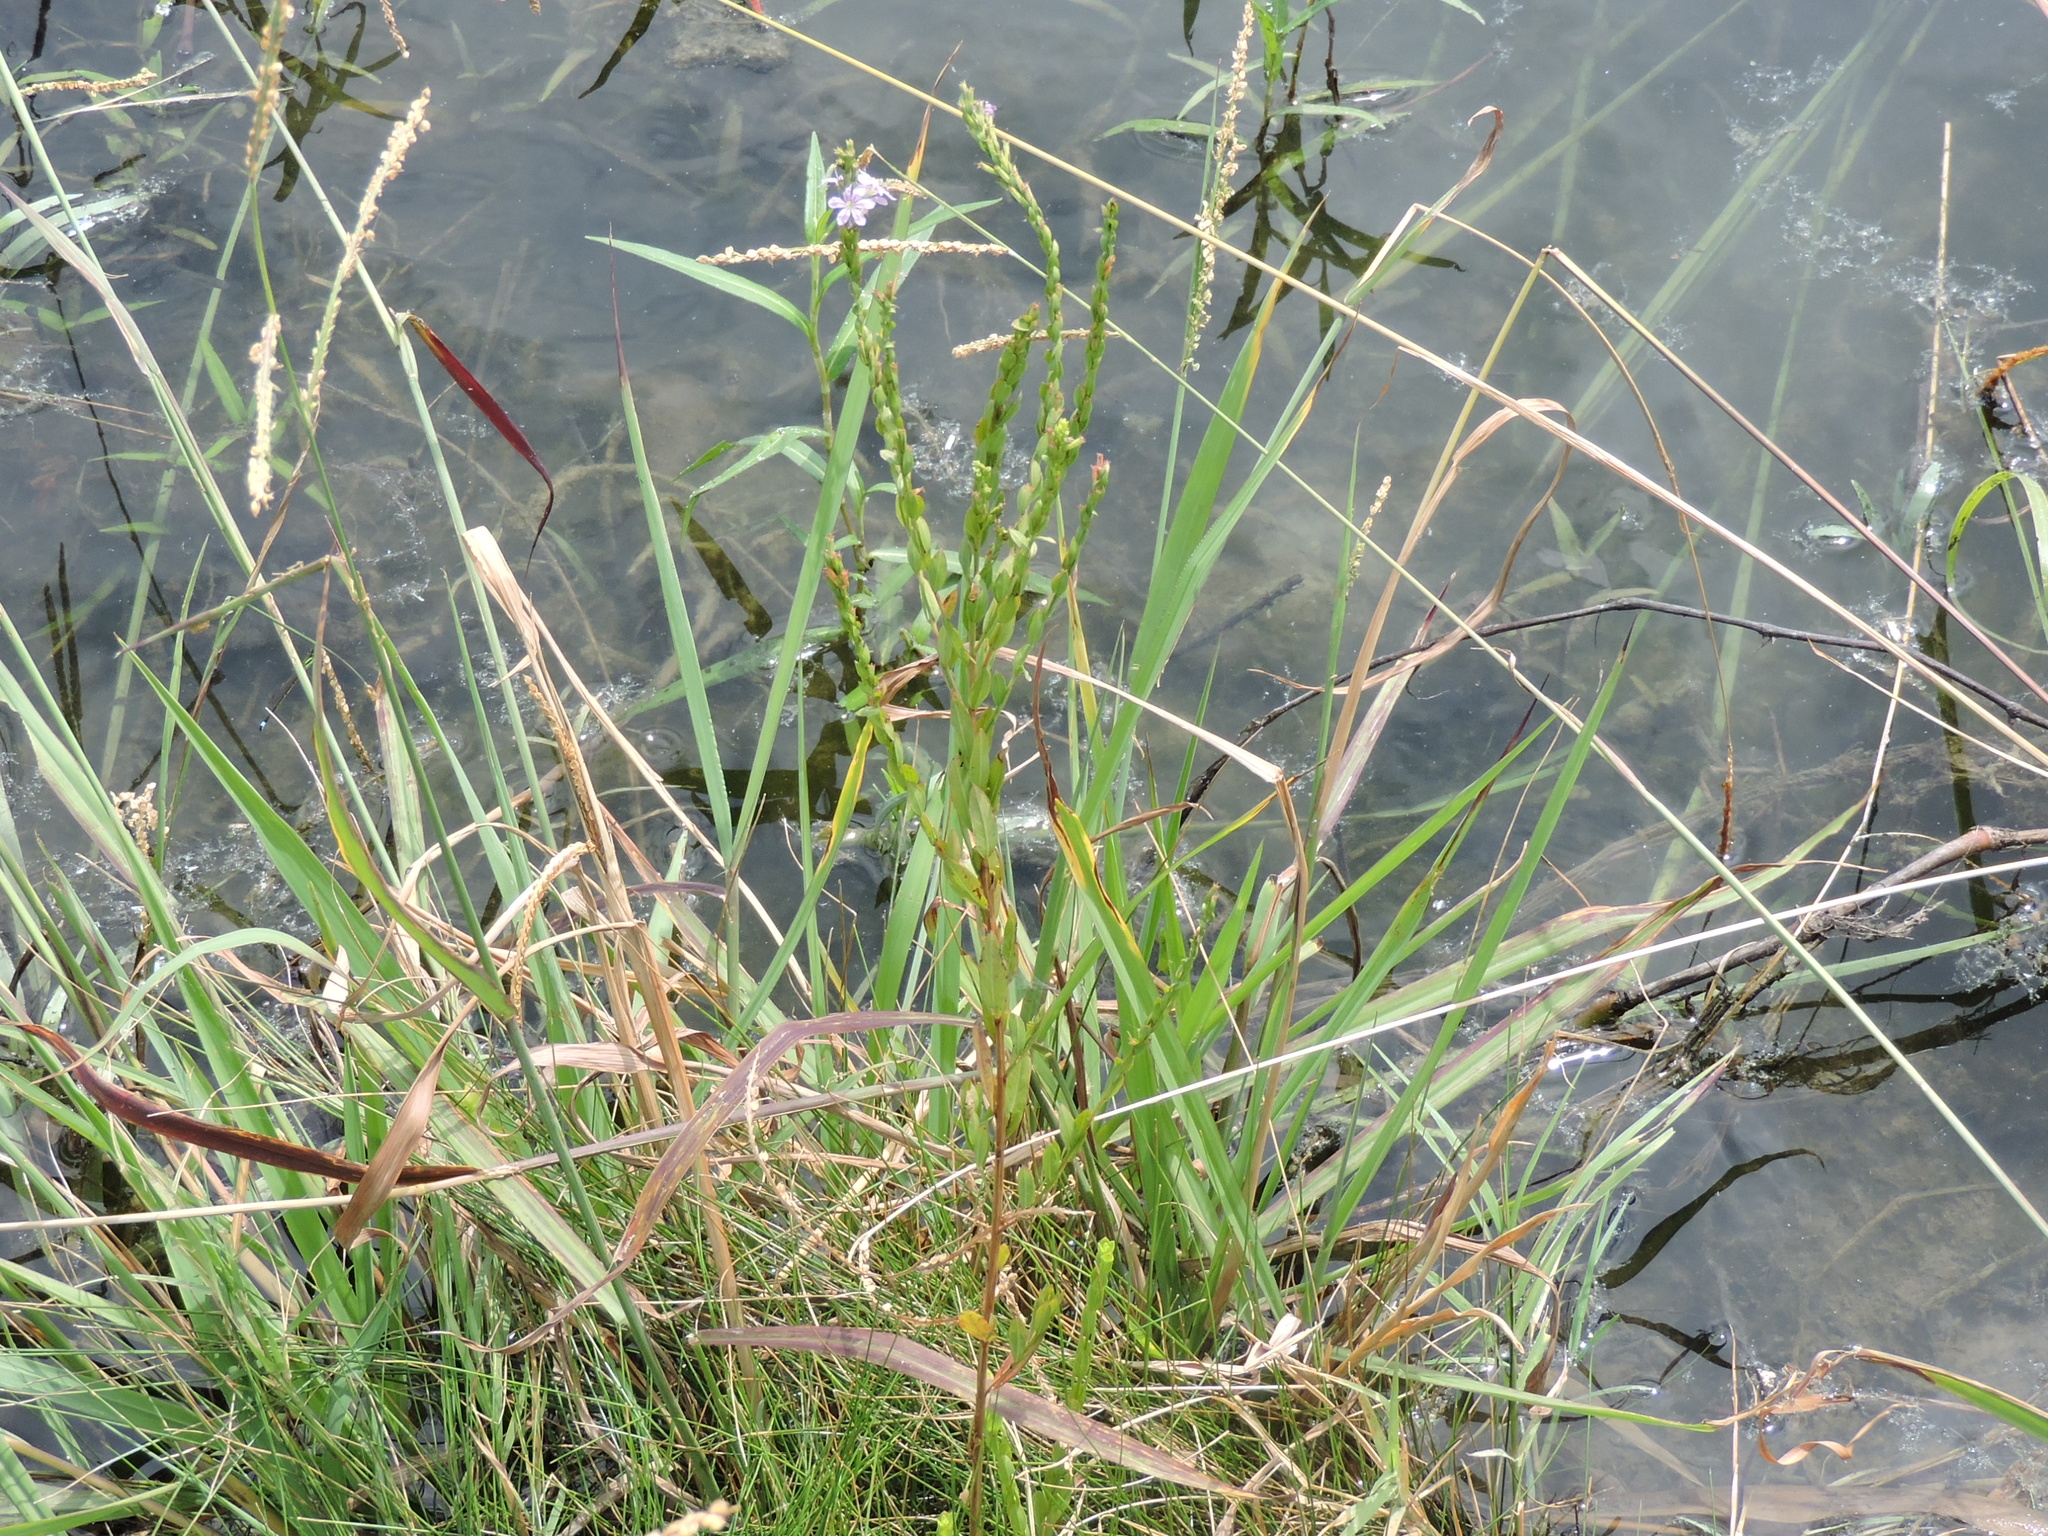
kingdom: Plantae
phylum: Tracheophyta
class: Magnoliopsida
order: Myrtales
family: Lythraceae
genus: Lythrum
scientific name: Lythrum alatum
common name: Winged loosestrife
